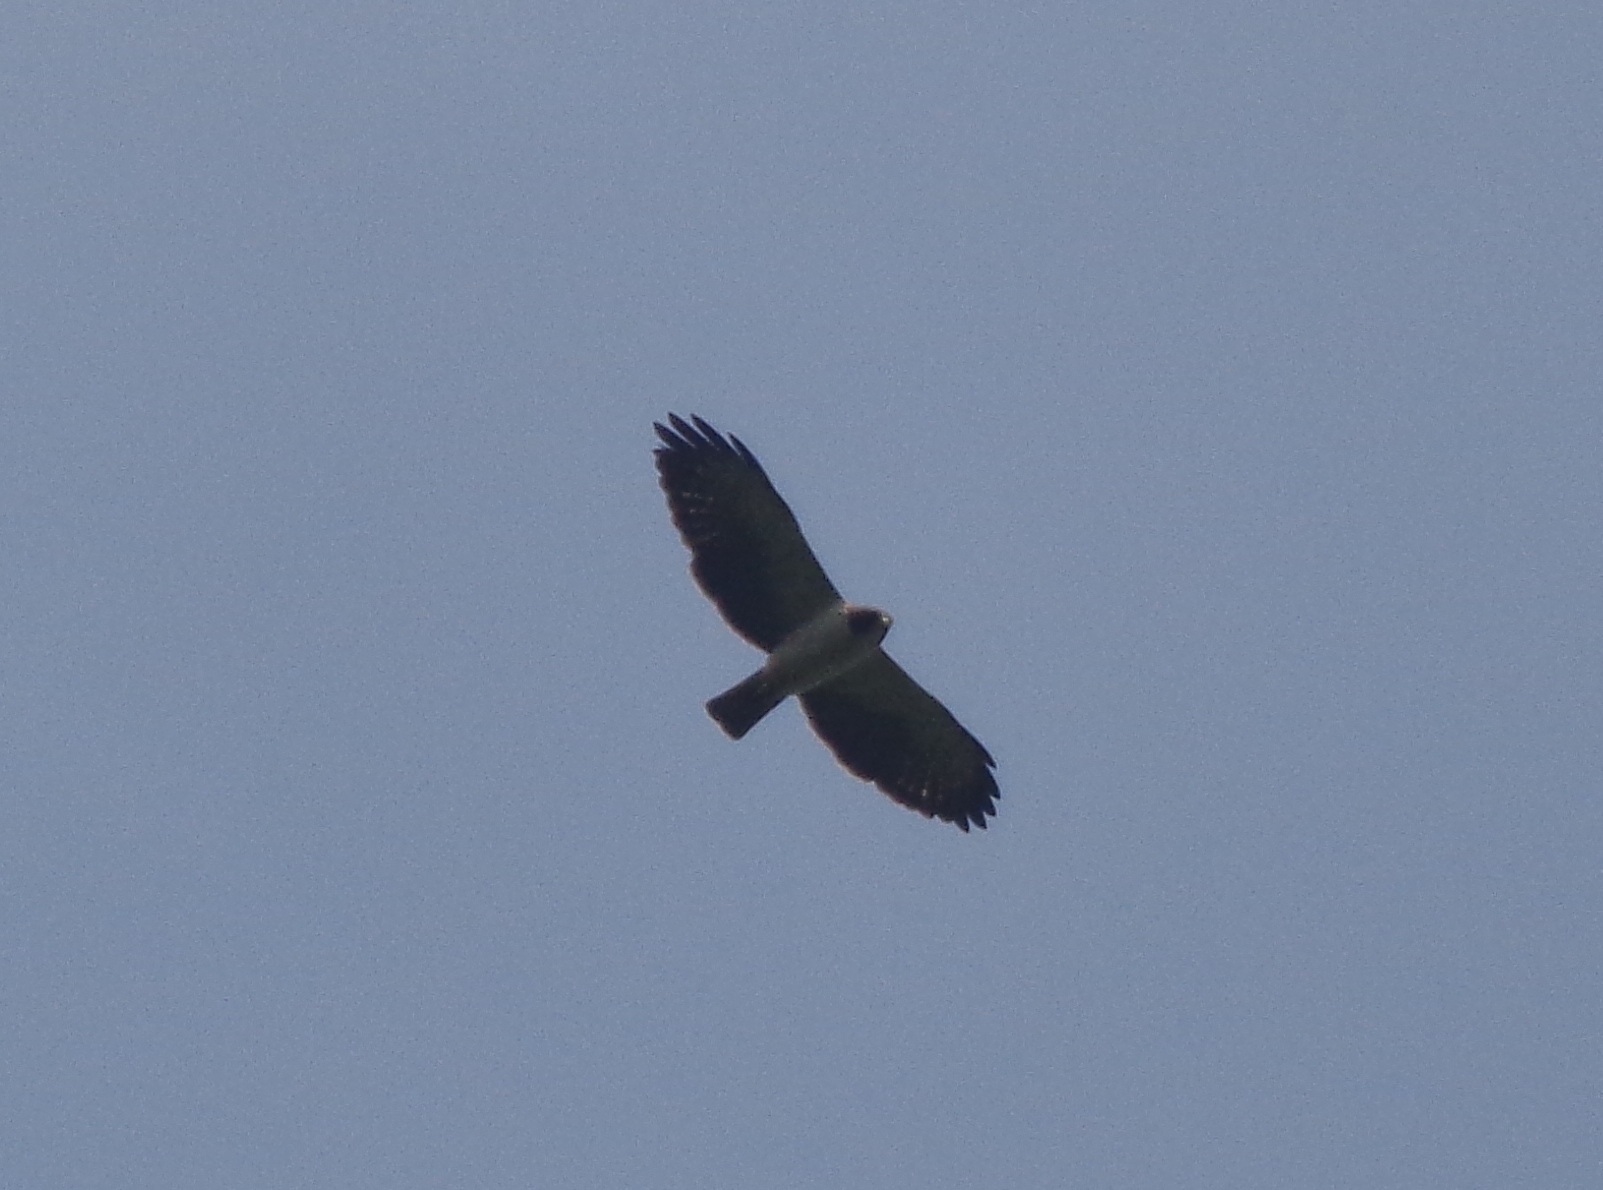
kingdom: Animalia
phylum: Chordata
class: Aves
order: Accipitriformes
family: Accipitridae
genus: Buteo
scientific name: Buteo brachyurus
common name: Short-tailed hawk
